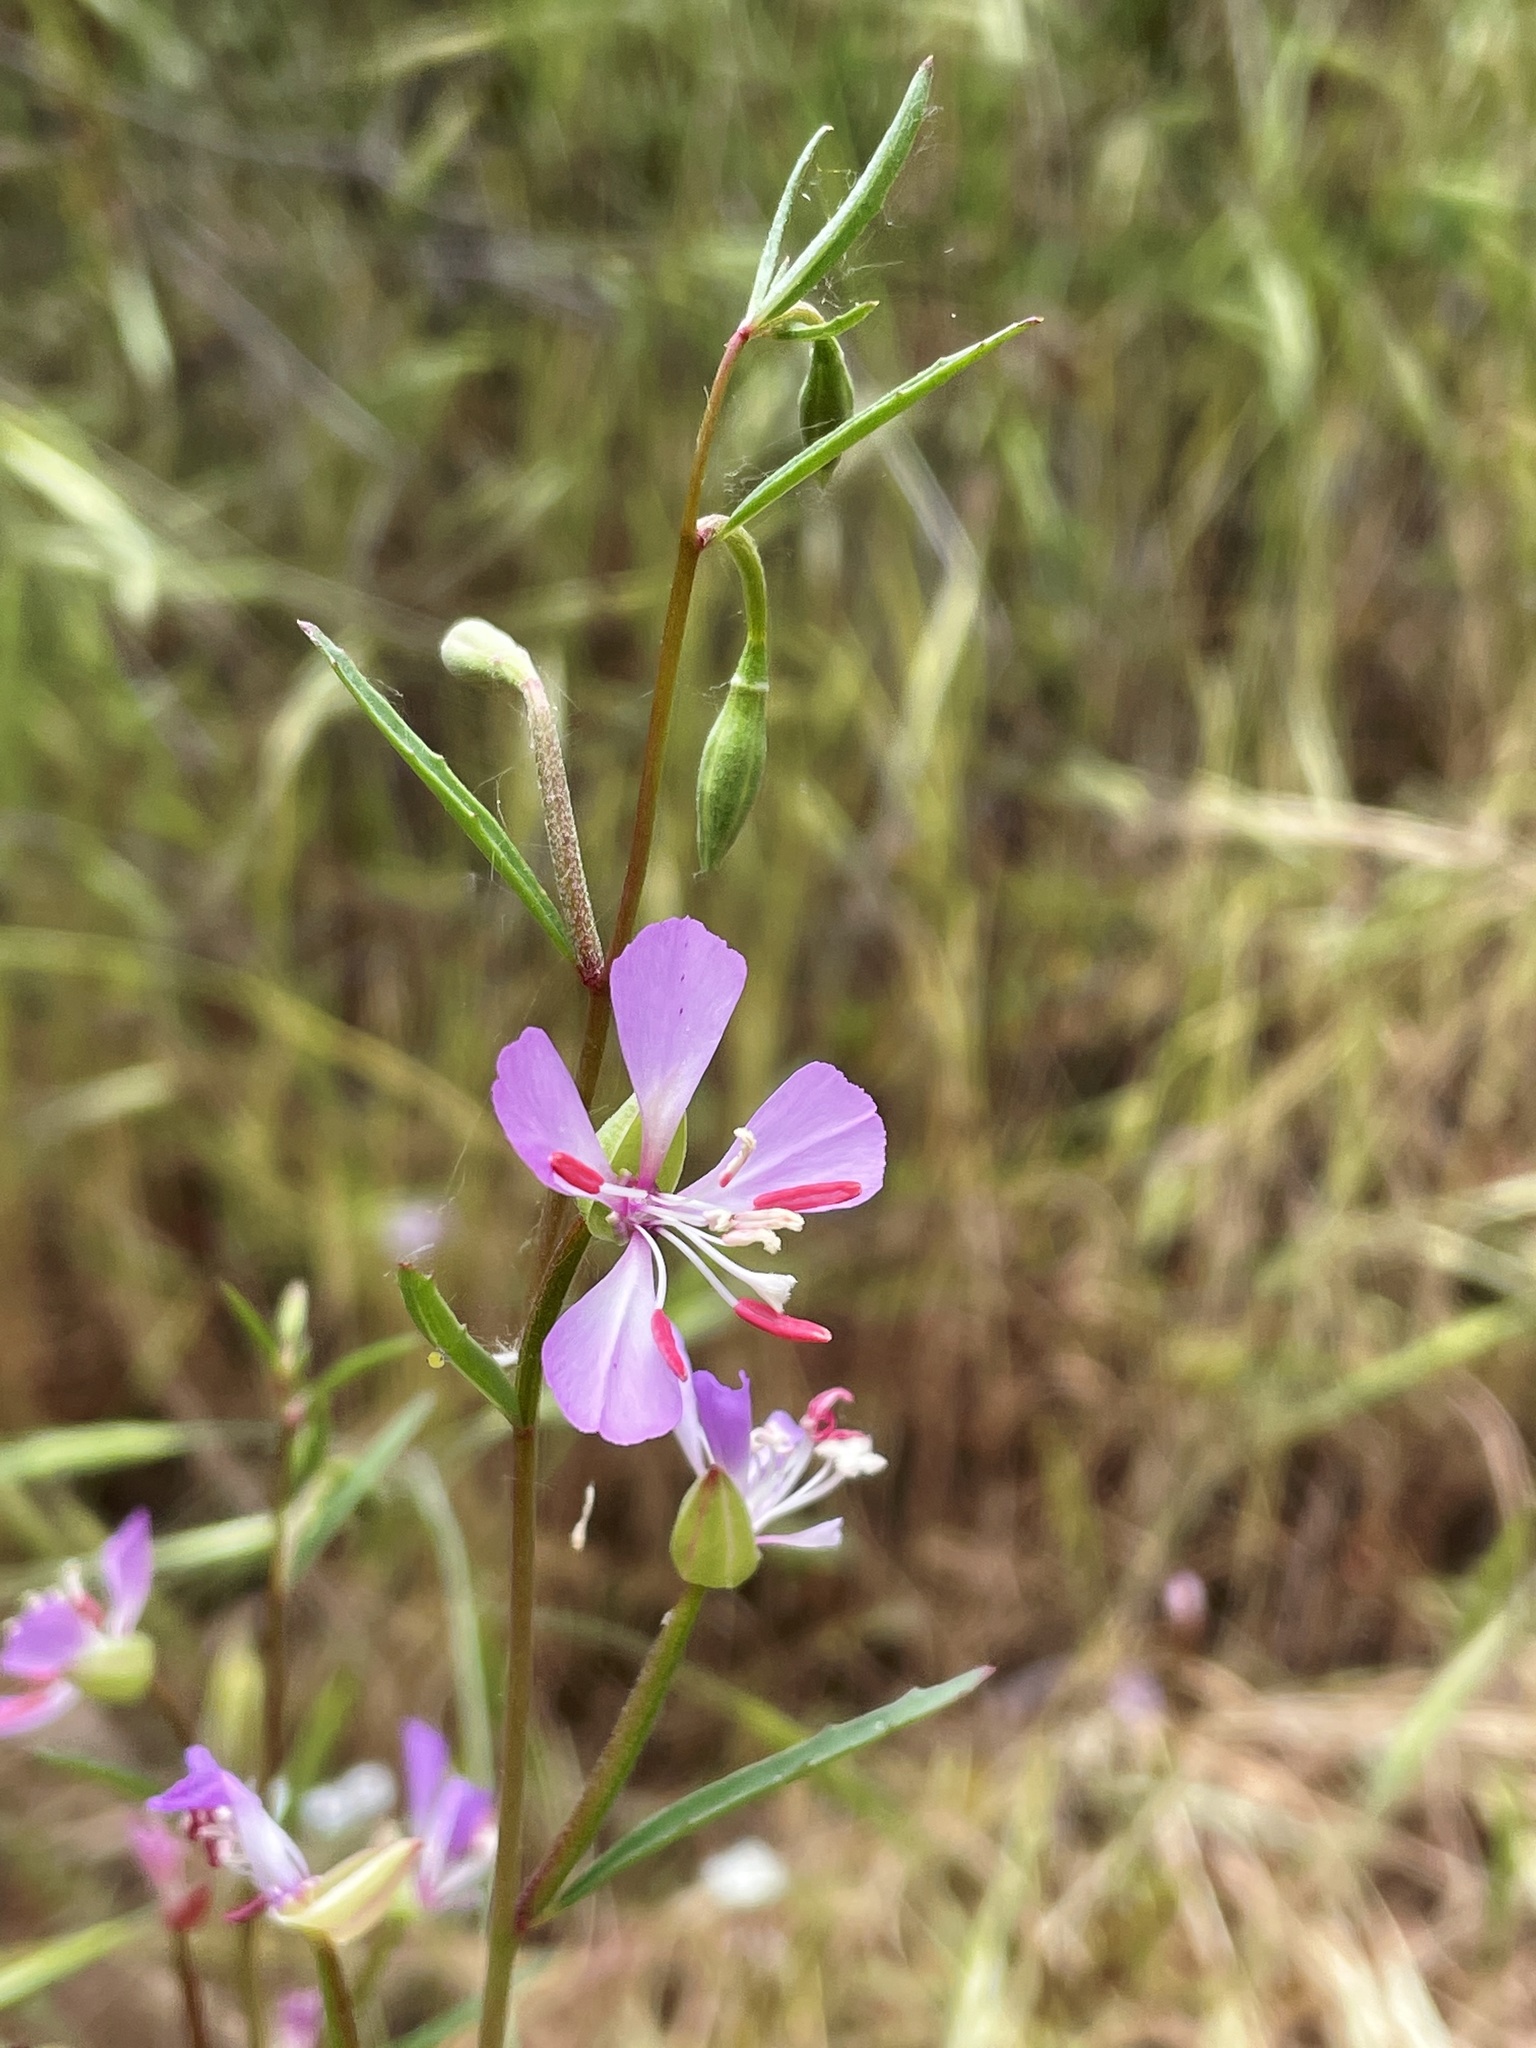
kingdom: Plantae
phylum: Tracheophyta
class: Magnoliopsida
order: Myrtales
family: Onagraceae
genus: Clarkia
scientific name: Clarkia delicata
